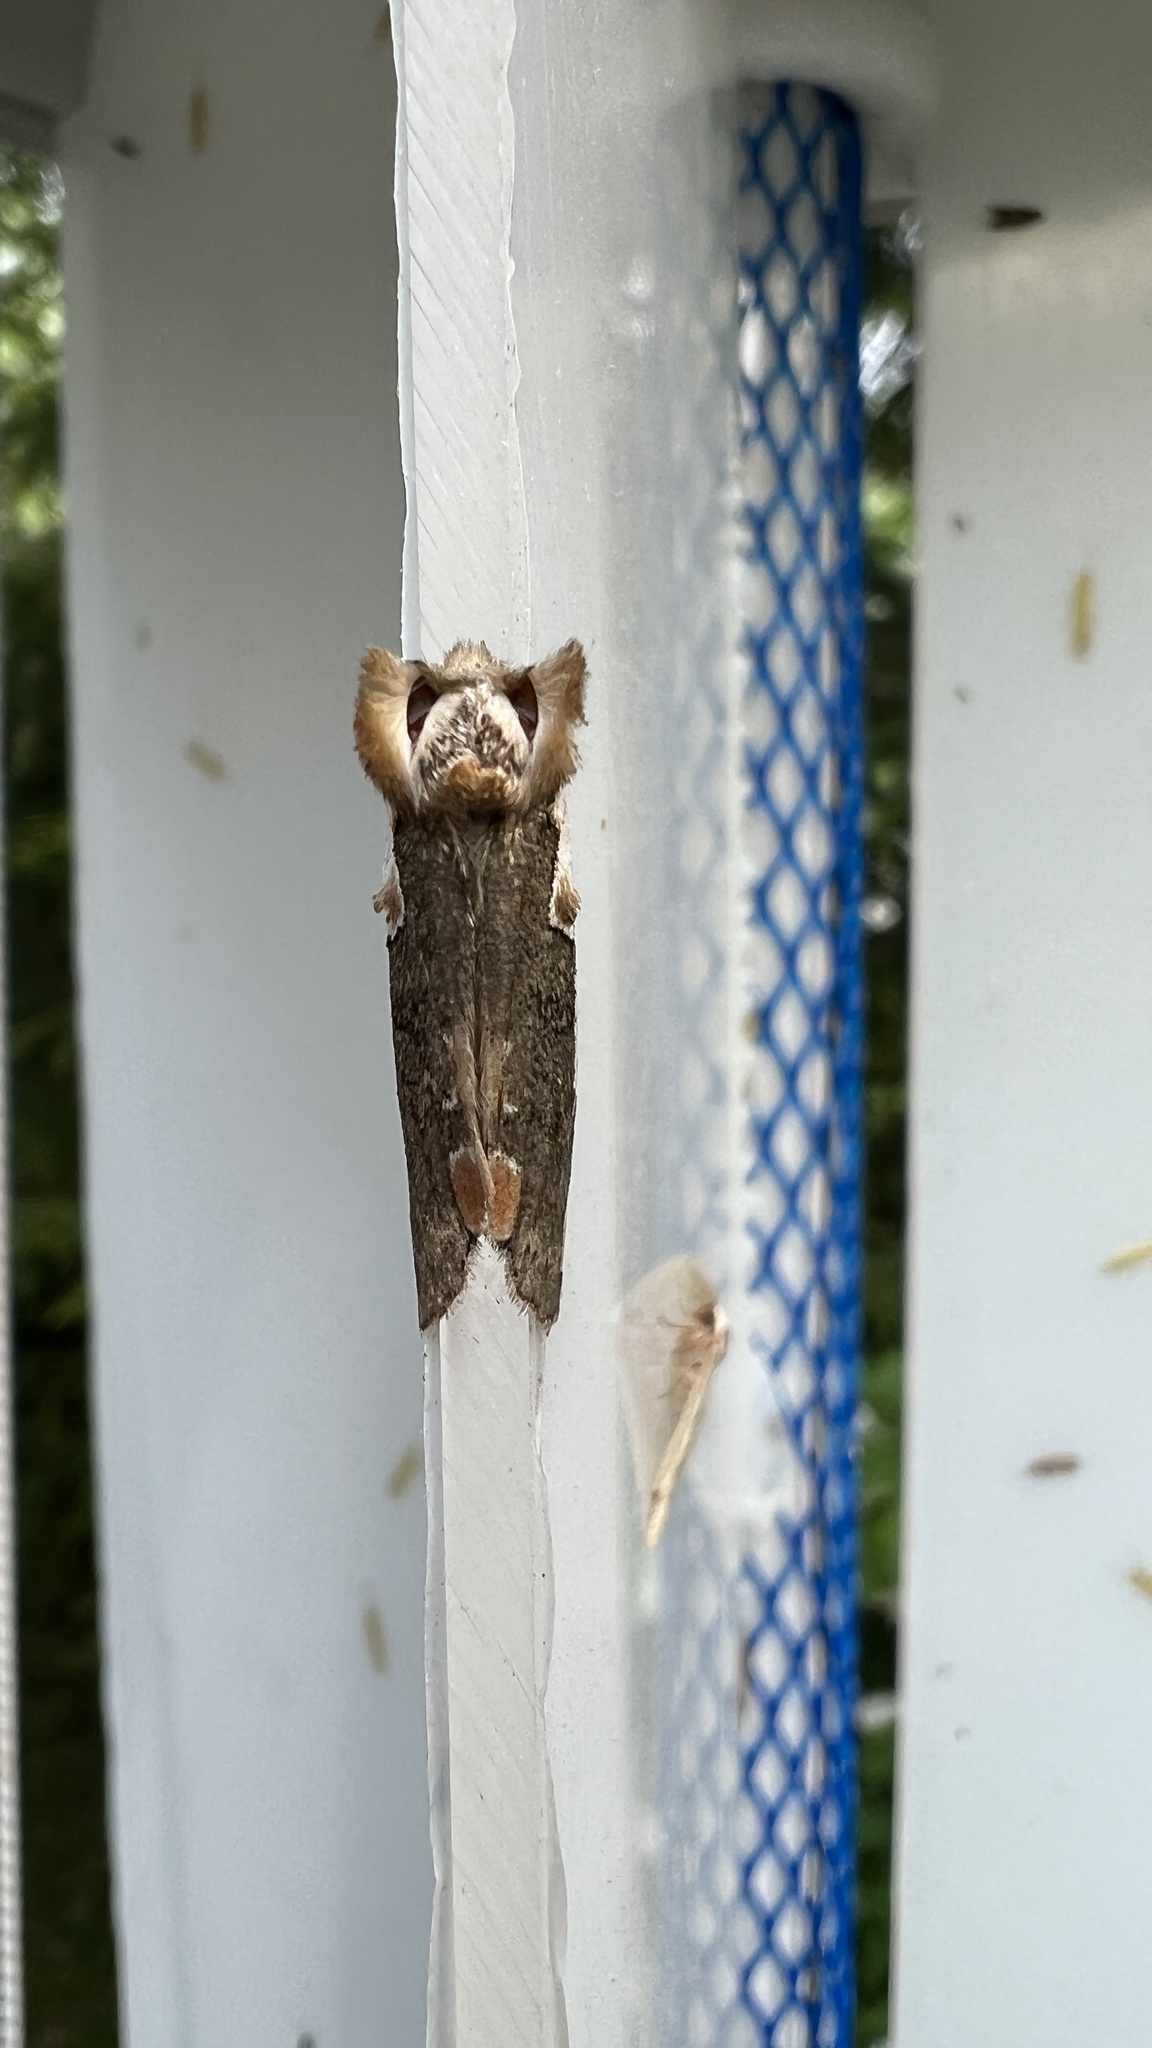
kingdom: Animalia
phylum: Arthropoda
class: Insecta
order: Lepidoptera
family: Drepanidae
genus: Euthyatira
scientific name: Euthyatira pudens
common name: Dogwood thyatirid moth
